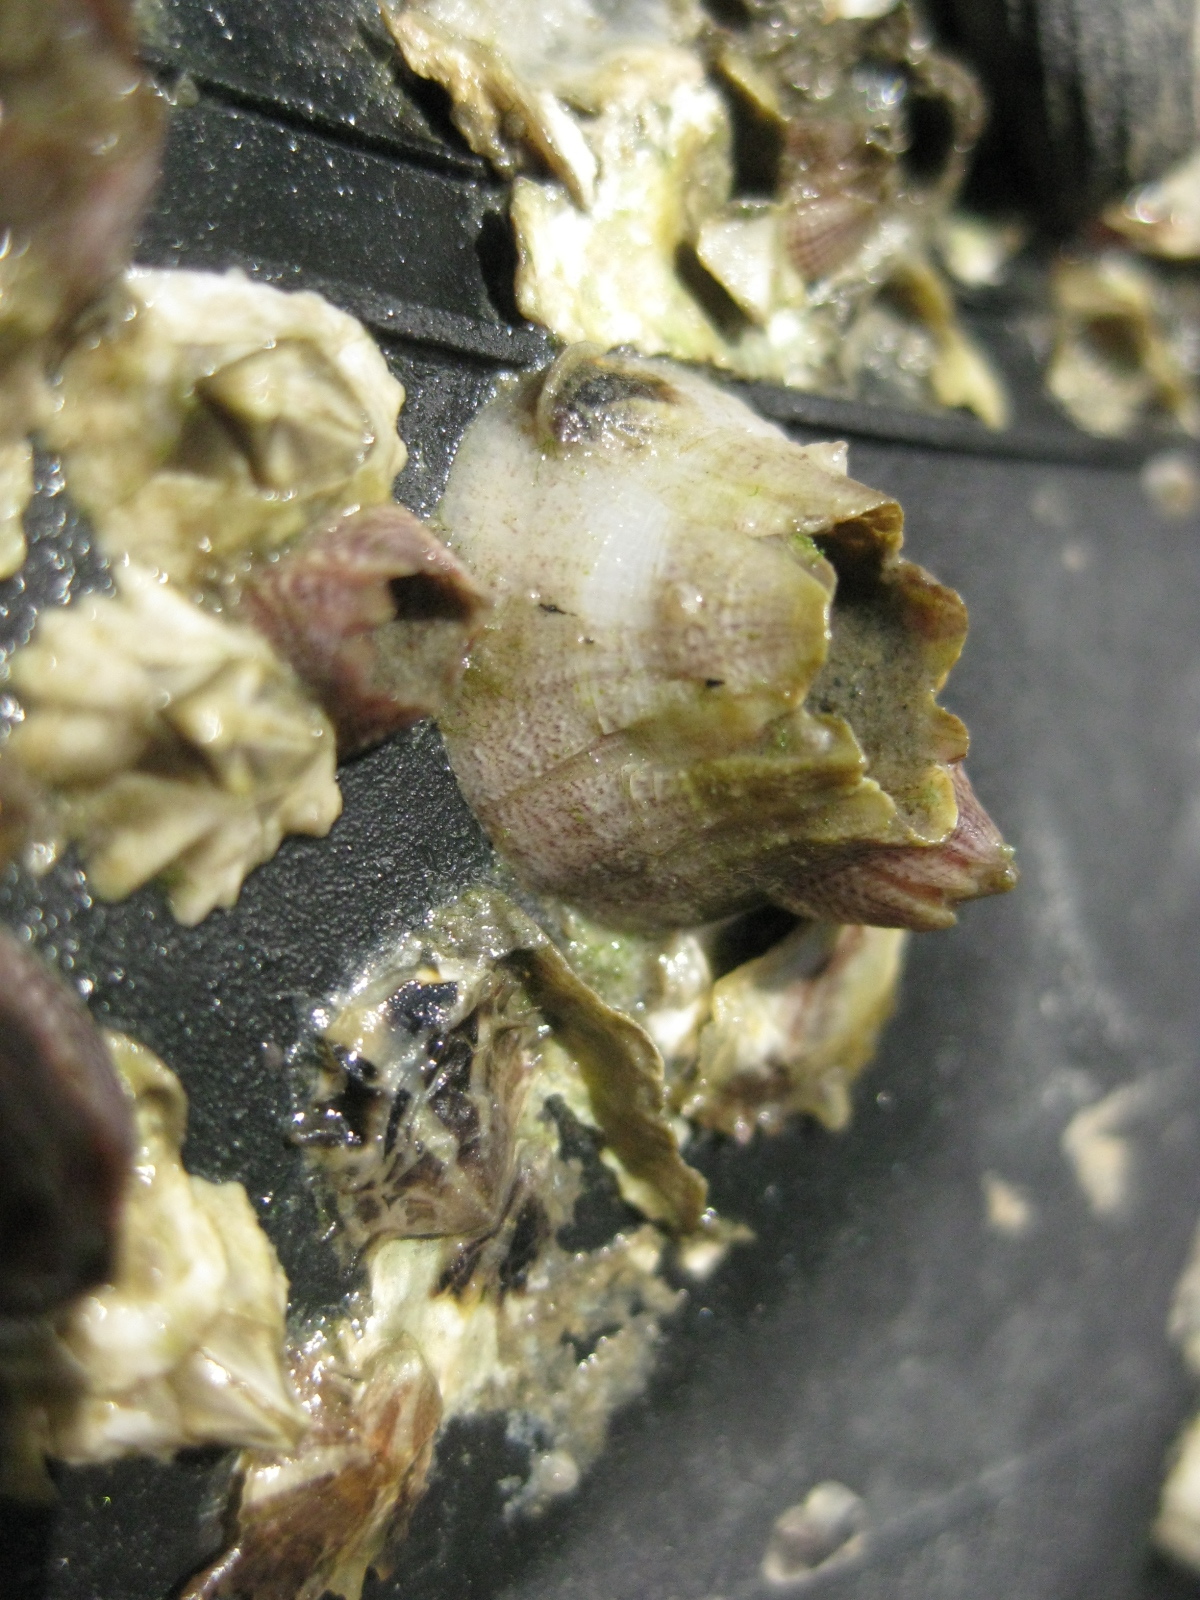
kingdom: Animalia
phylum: Arthropoda
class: Maxillopoda
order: Sessilia
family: Balanidae
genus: Fistulobalanus
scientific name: Fistulobalanus kondakovi
